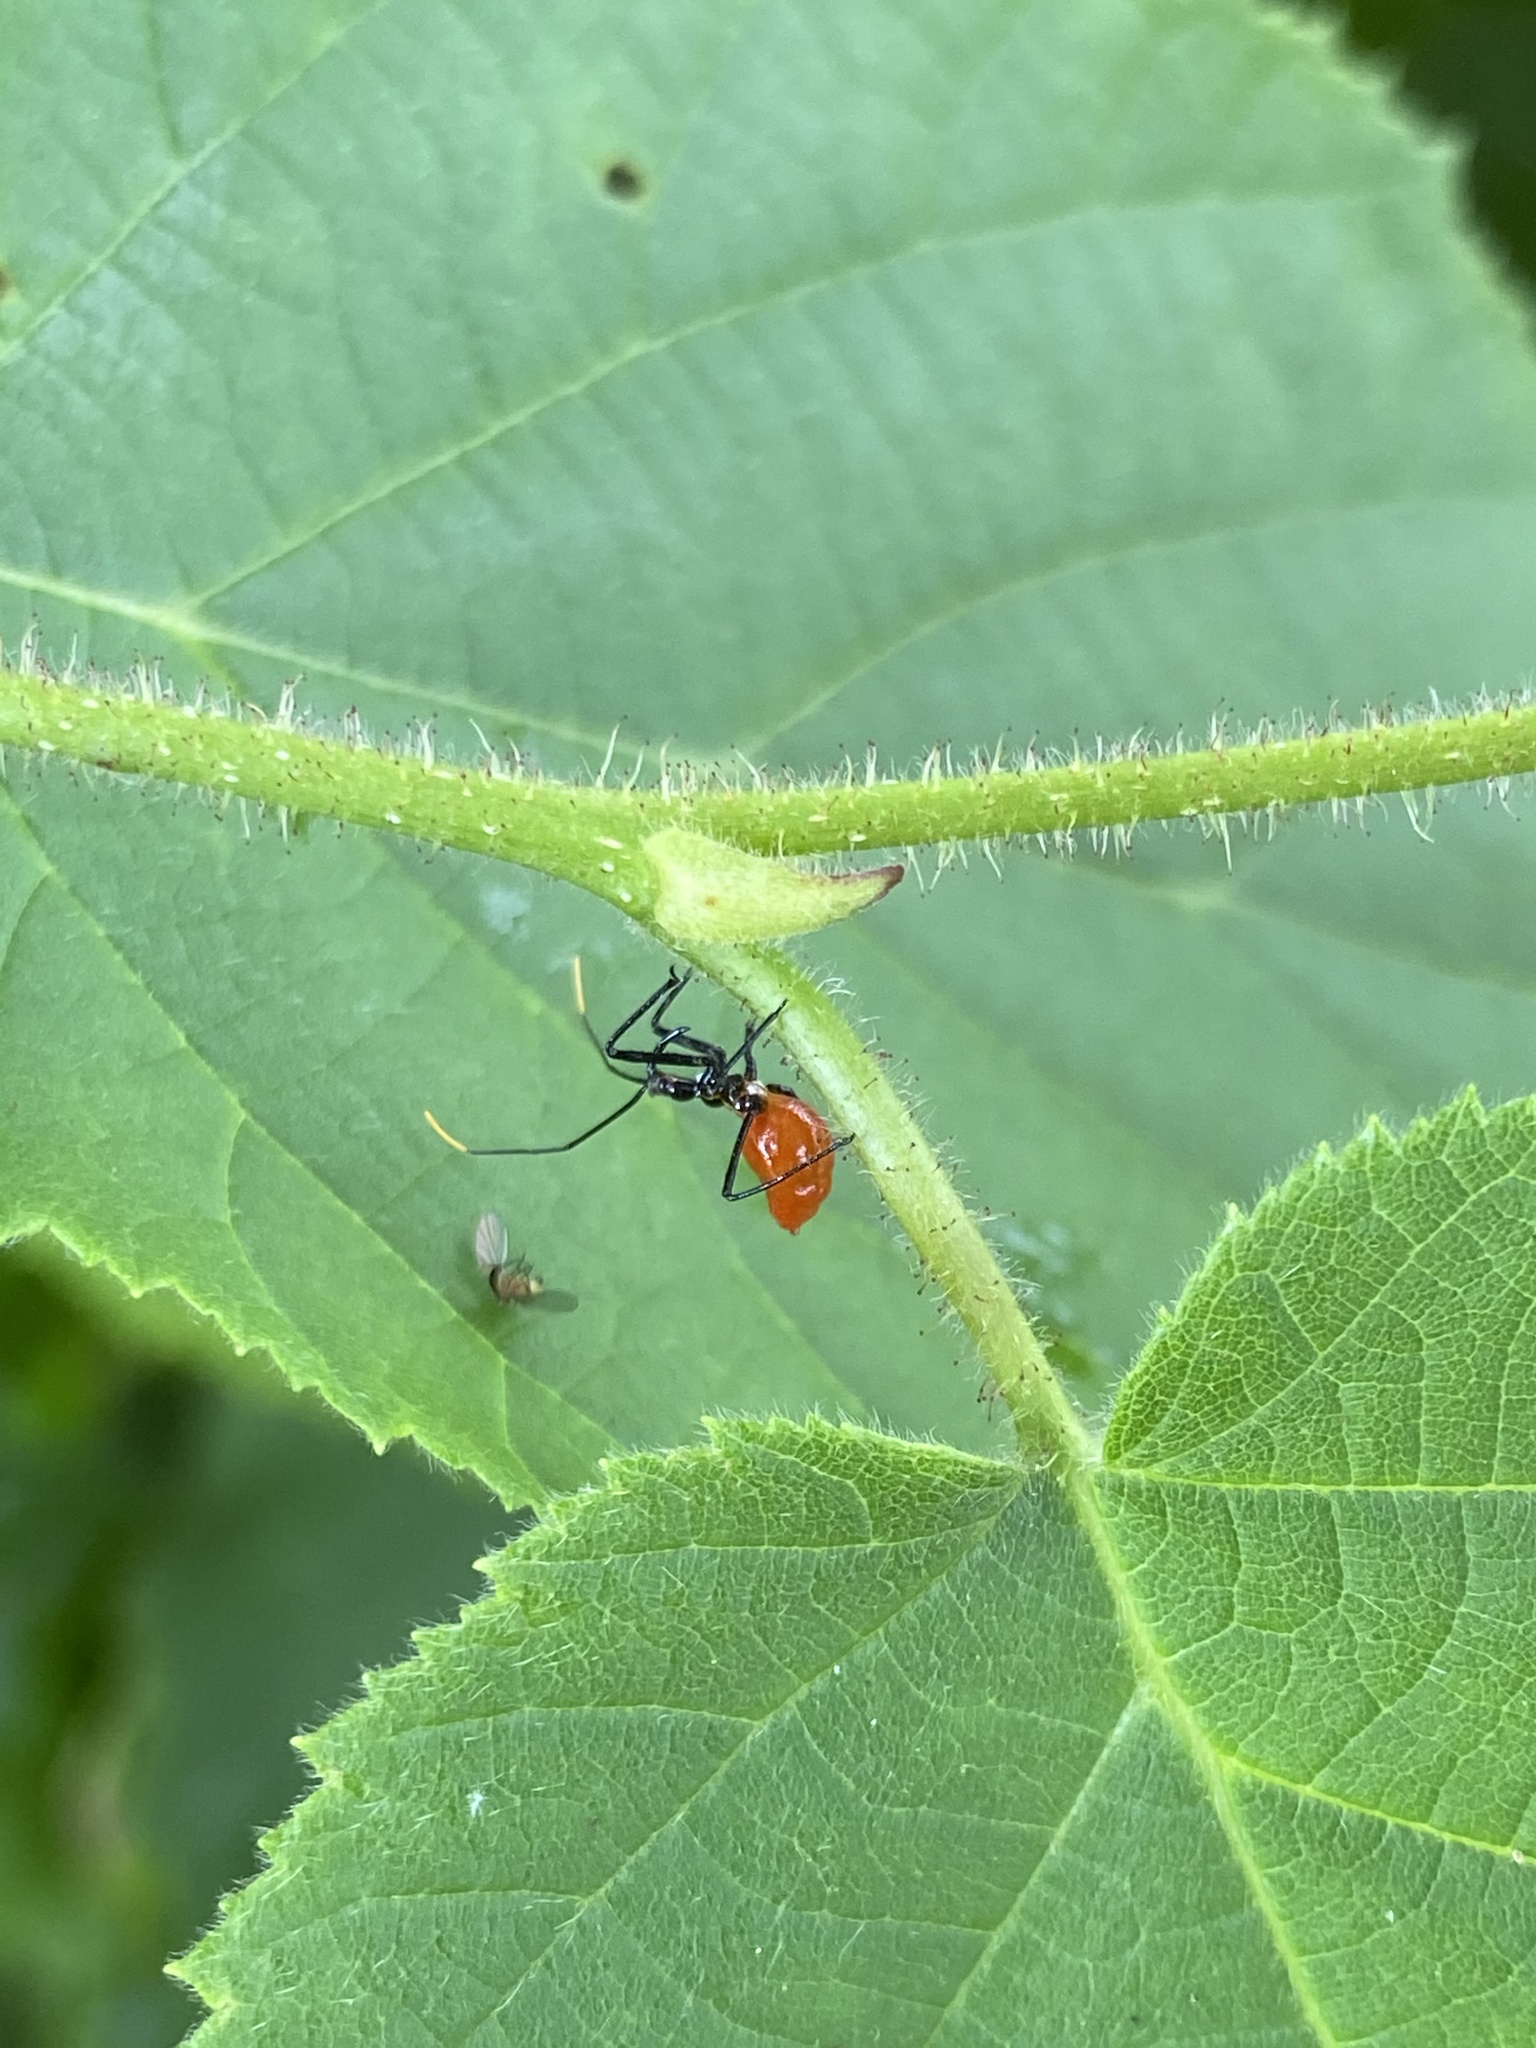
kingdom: Animalia
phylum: Arthropoda
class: Insecta
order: Hemiptera
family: Reduviidae
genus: Arilus
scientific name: Arilus cristatus
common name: North american wheel bug
